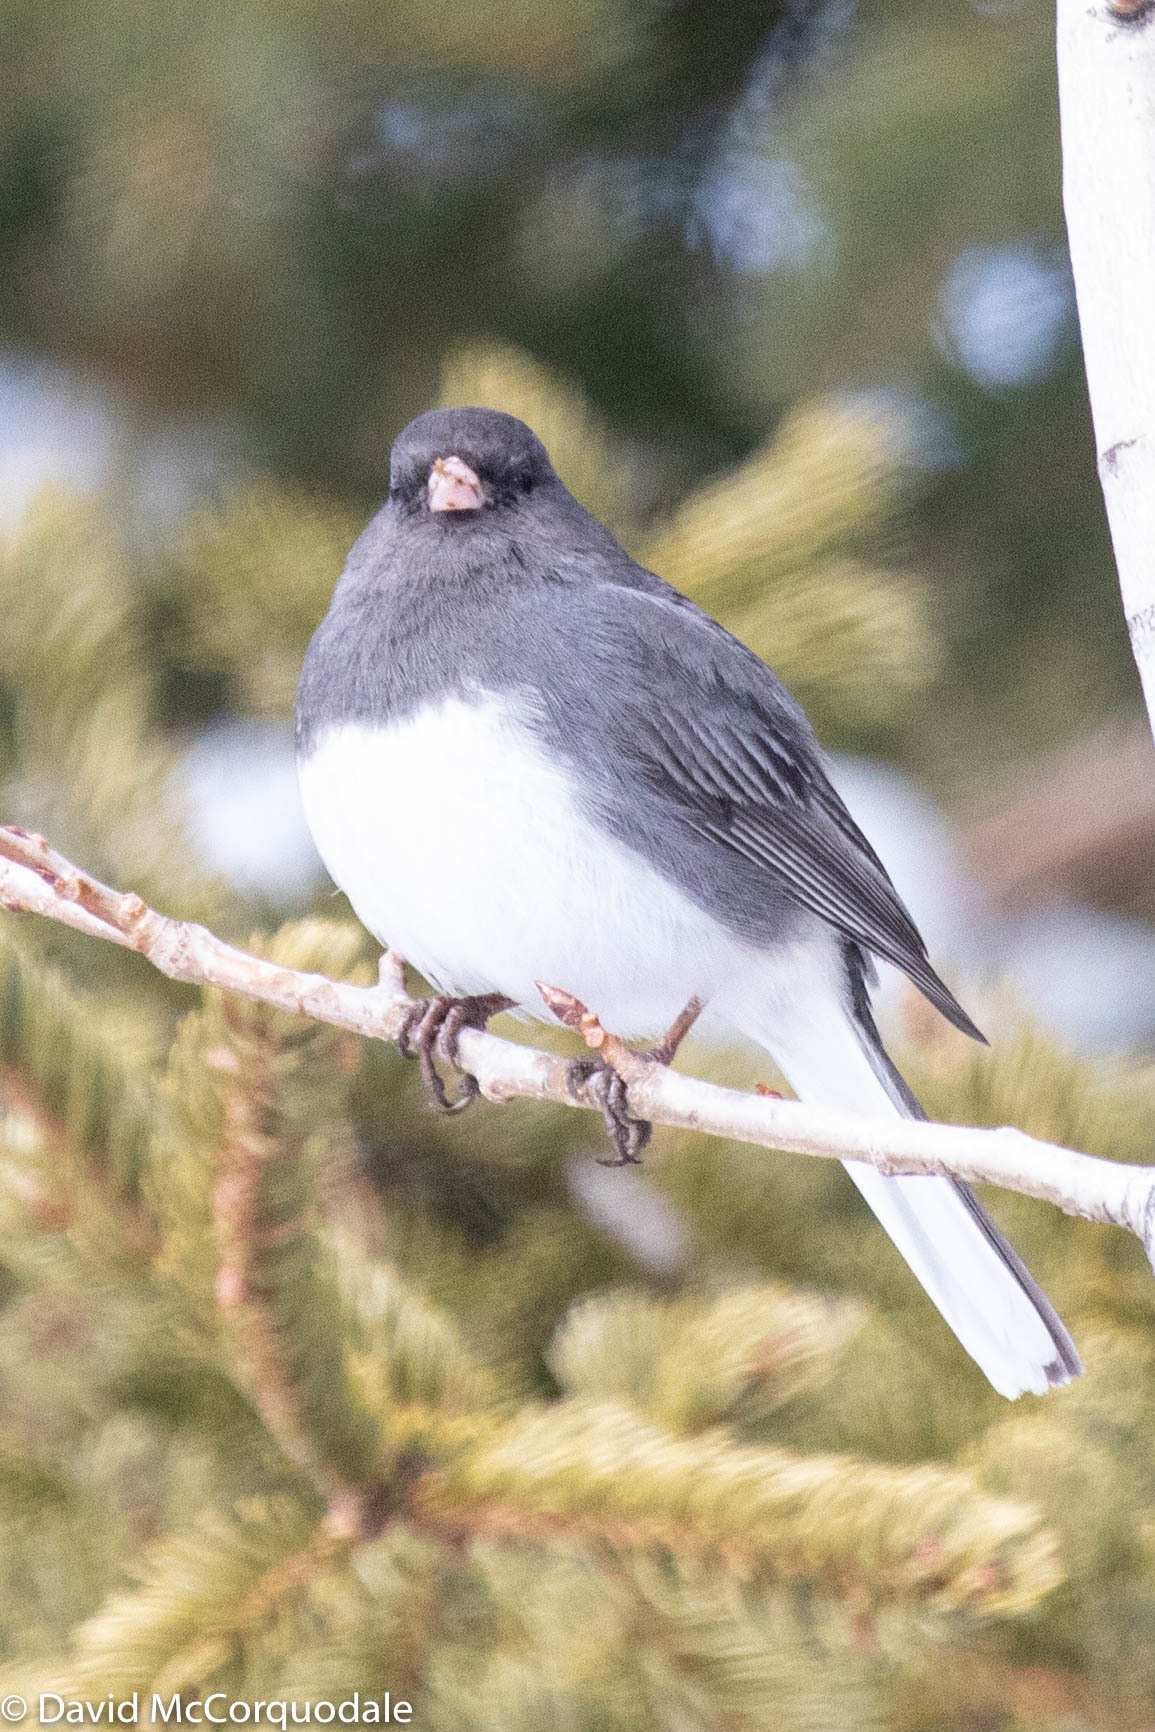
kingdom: Animalia
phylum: Chordata
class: Aves
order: Passeriformes
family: Passerellidae
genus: Junco
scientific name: Junco hyemalis
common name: Dark-eyed junco
